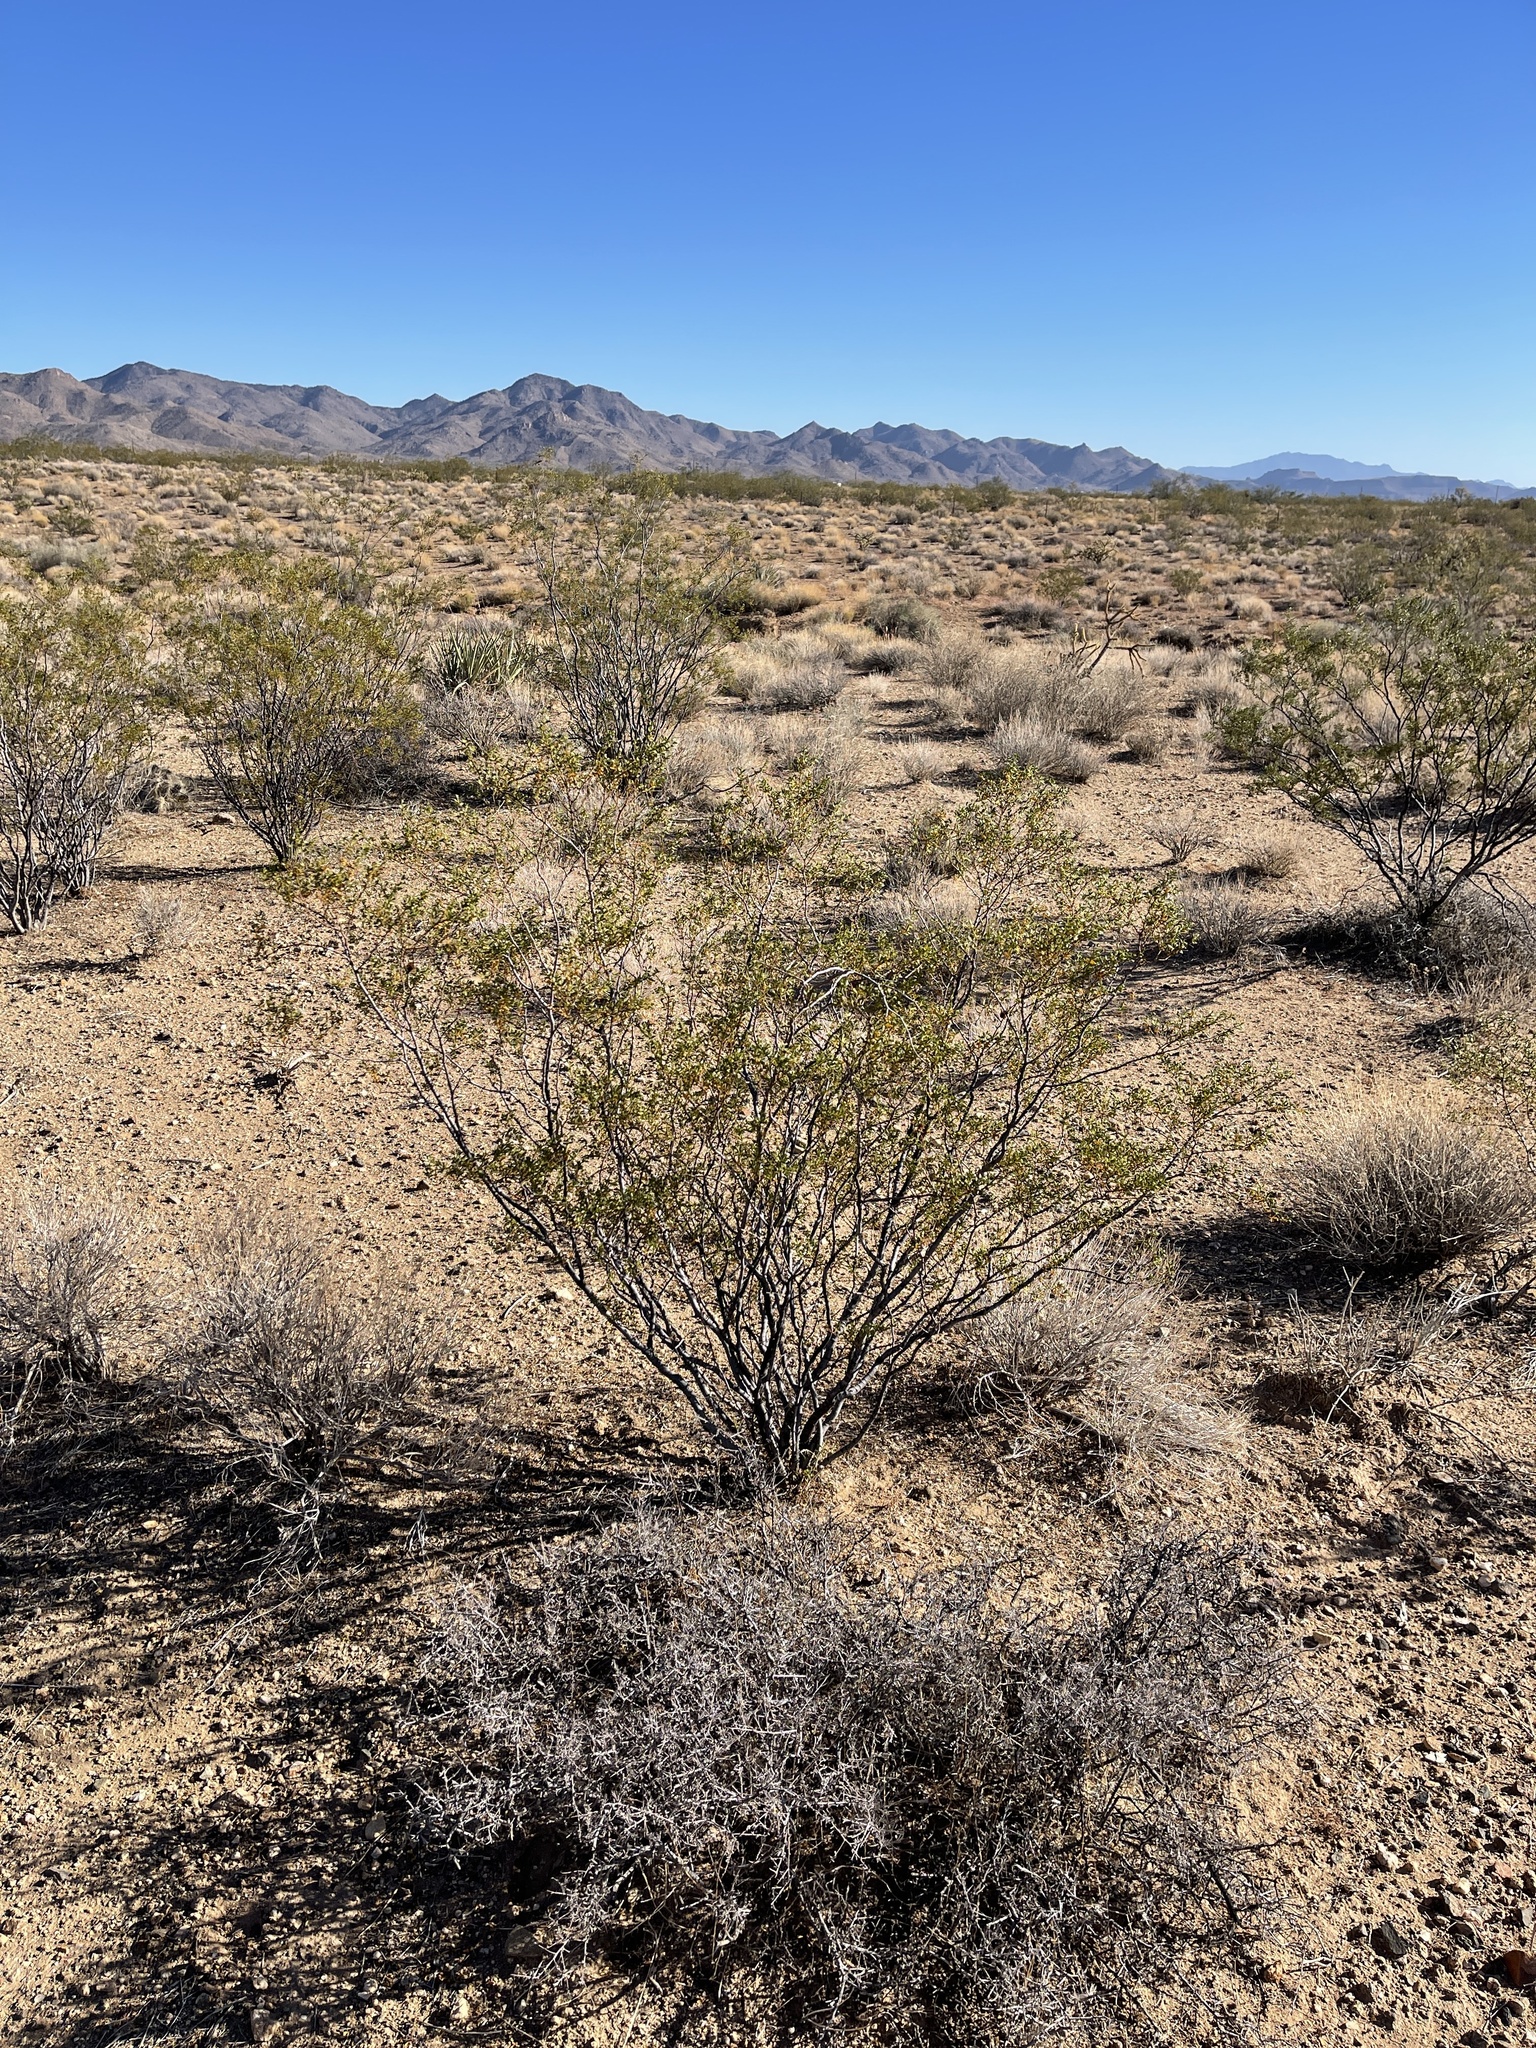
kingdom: Plantae
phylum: Tracheophyta
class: Magnoliopsida
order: Zygophyllales
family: Zygophyllaceae
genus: Larrea
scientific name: Larrea tridentata
